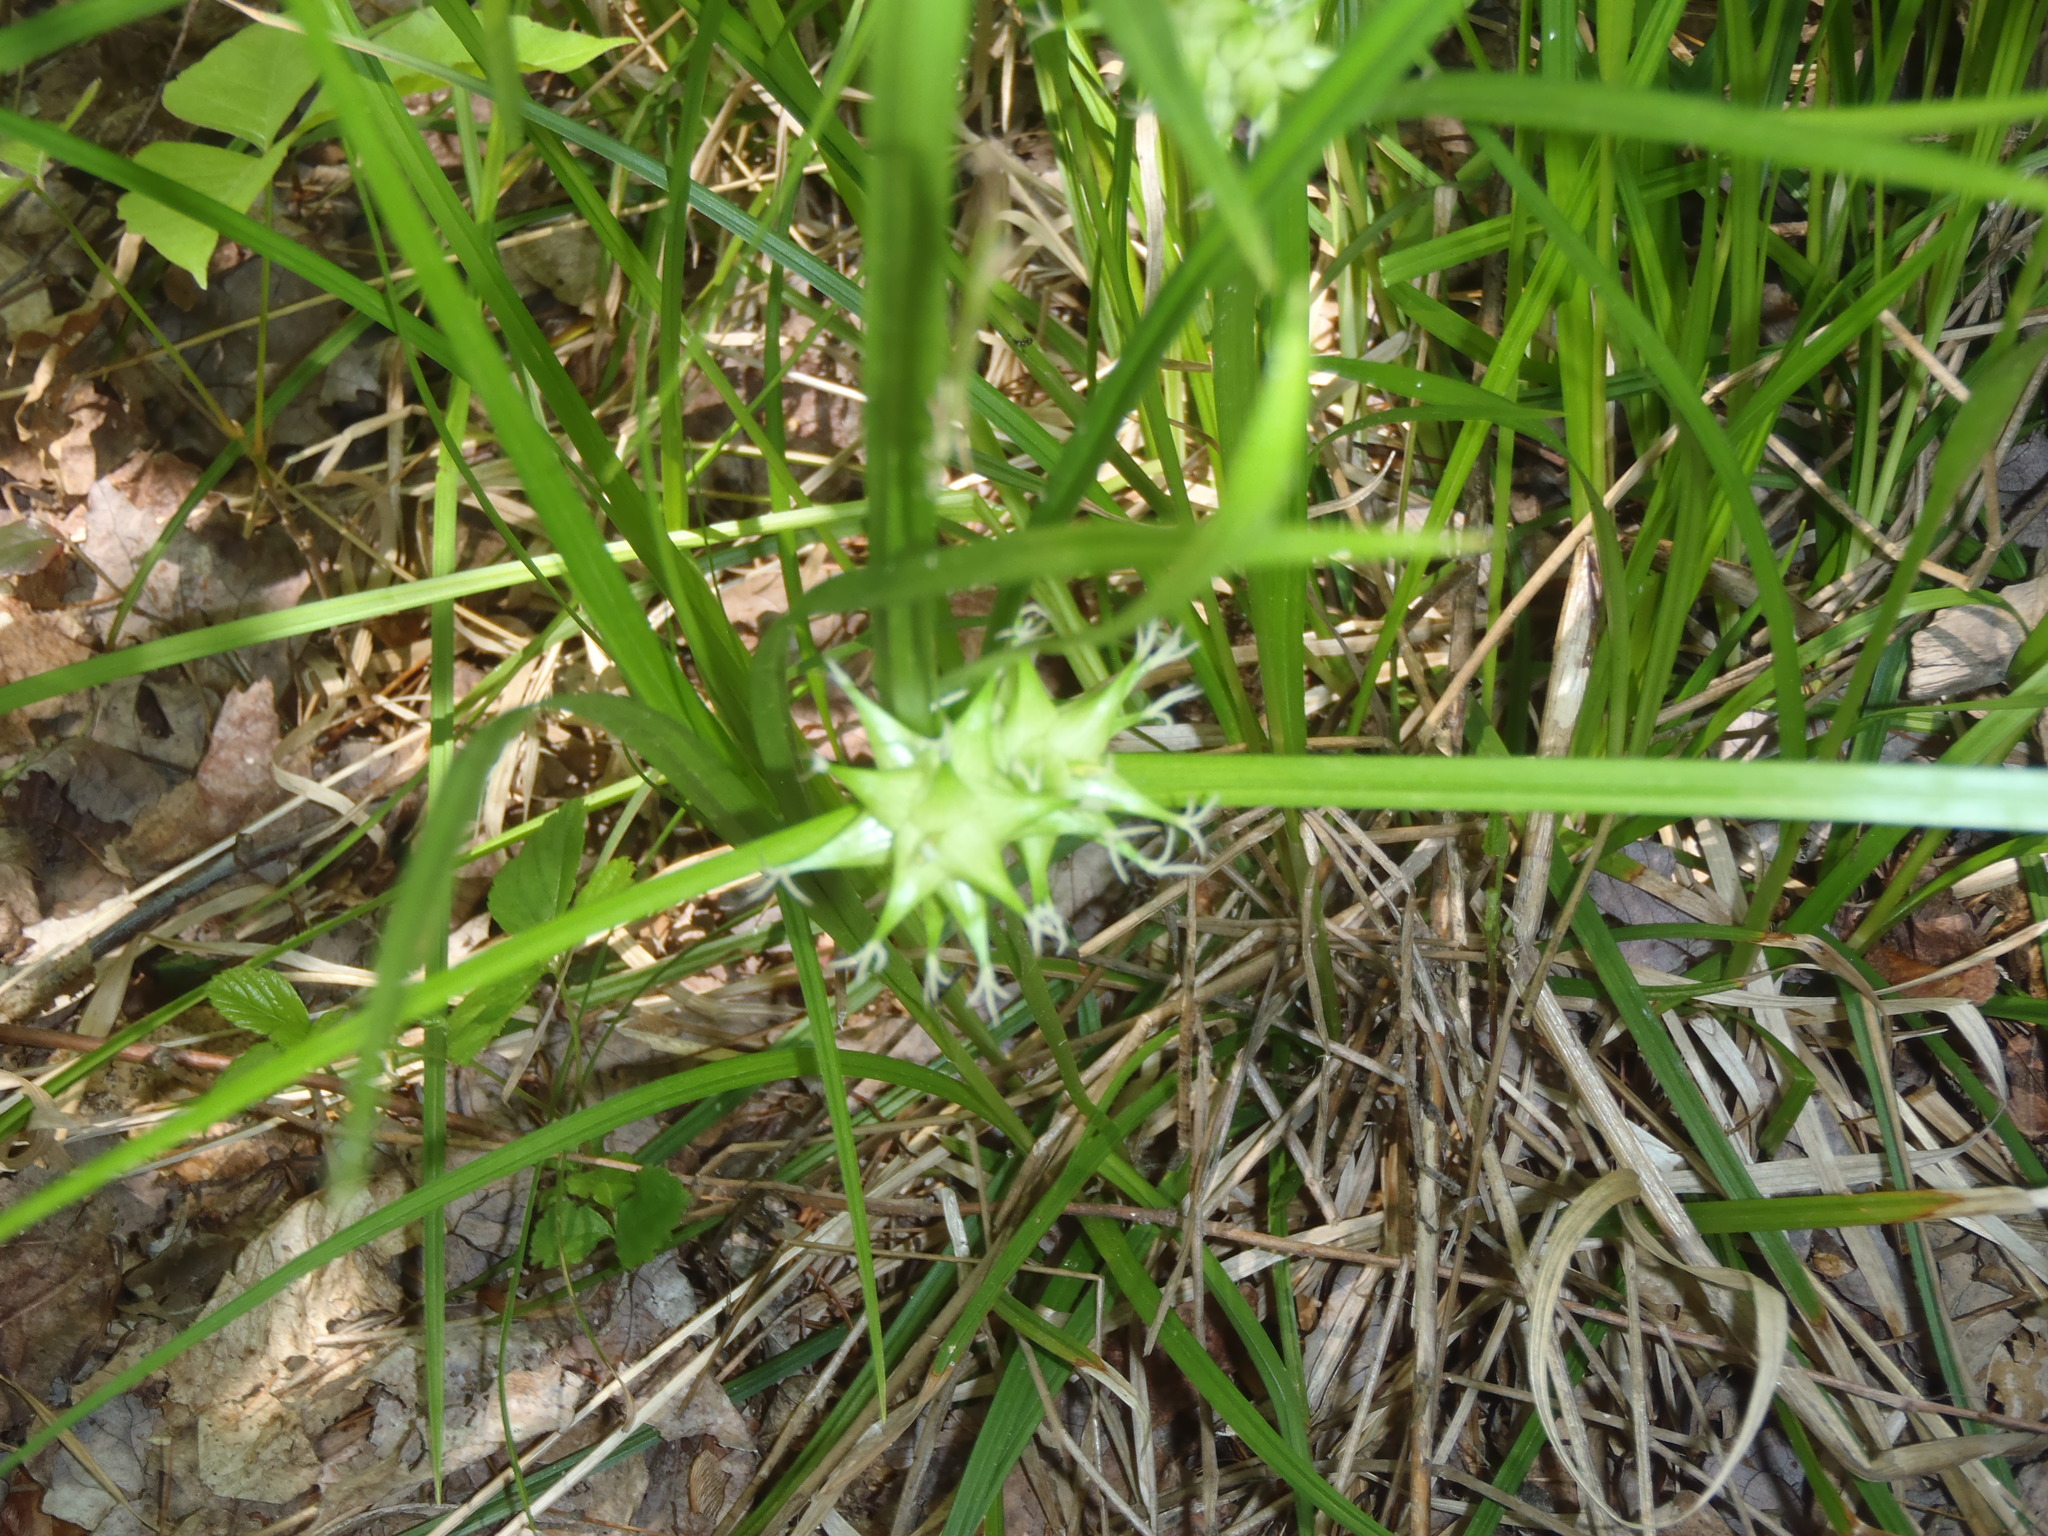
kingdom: Plantae
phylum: Tracheophyta
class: Liliopsida
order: Poales
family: Cyperaceae
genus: Carex
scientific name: Carex intumescens
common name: Greater bladder sedge
